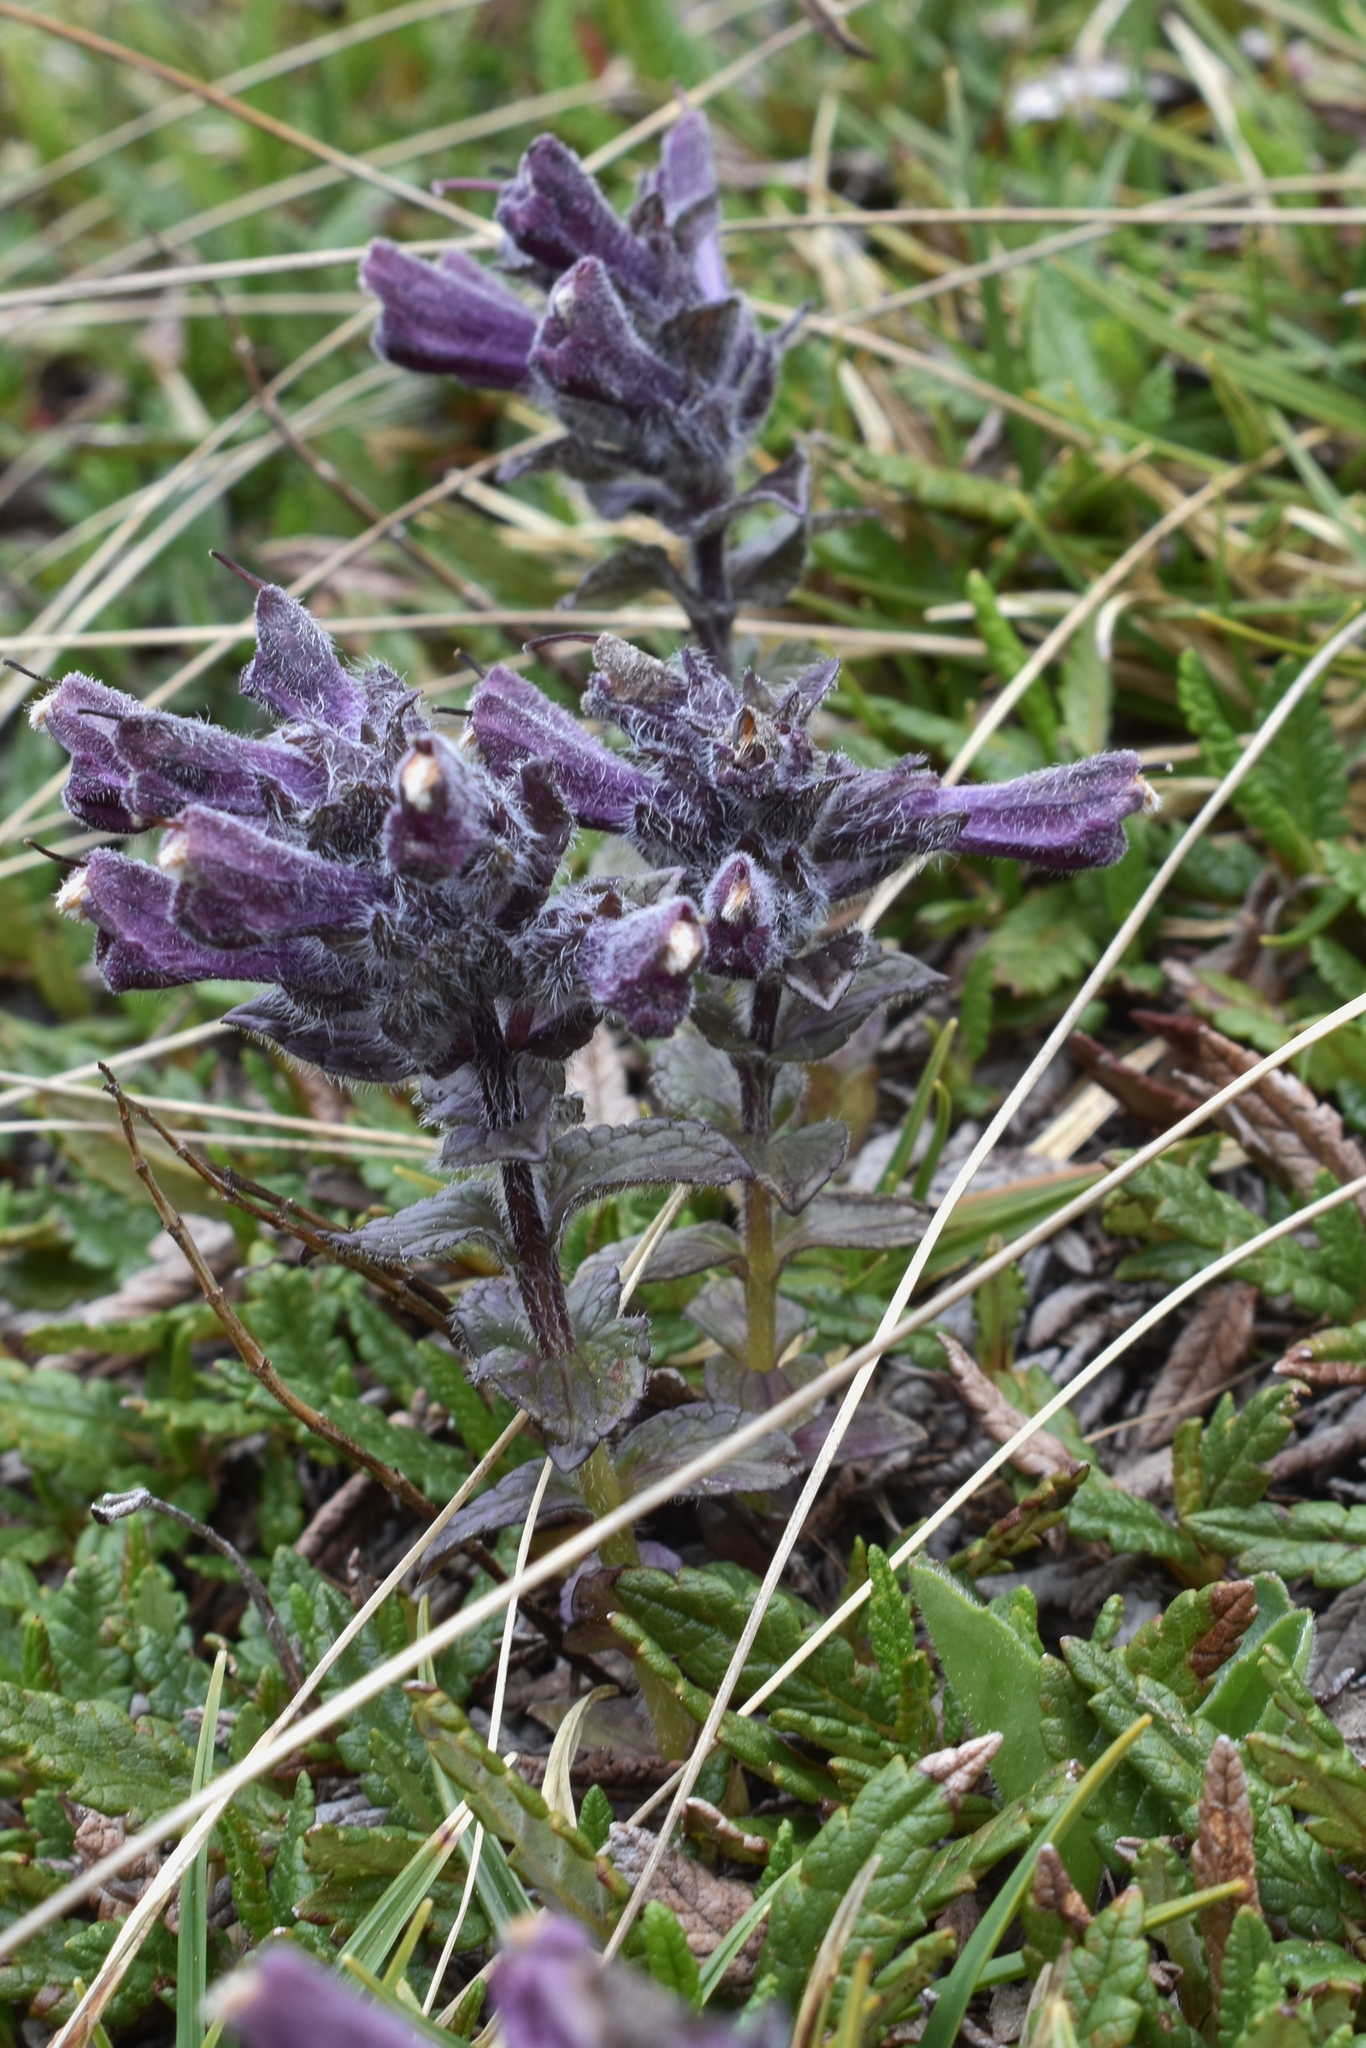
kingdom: Plantae
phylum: Tracheophyta
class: Magnoliopsida
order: Lamiales
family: Orobanchaceae
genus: Bartsia
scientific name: Bartsia alpina
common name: Alpine bartsia
